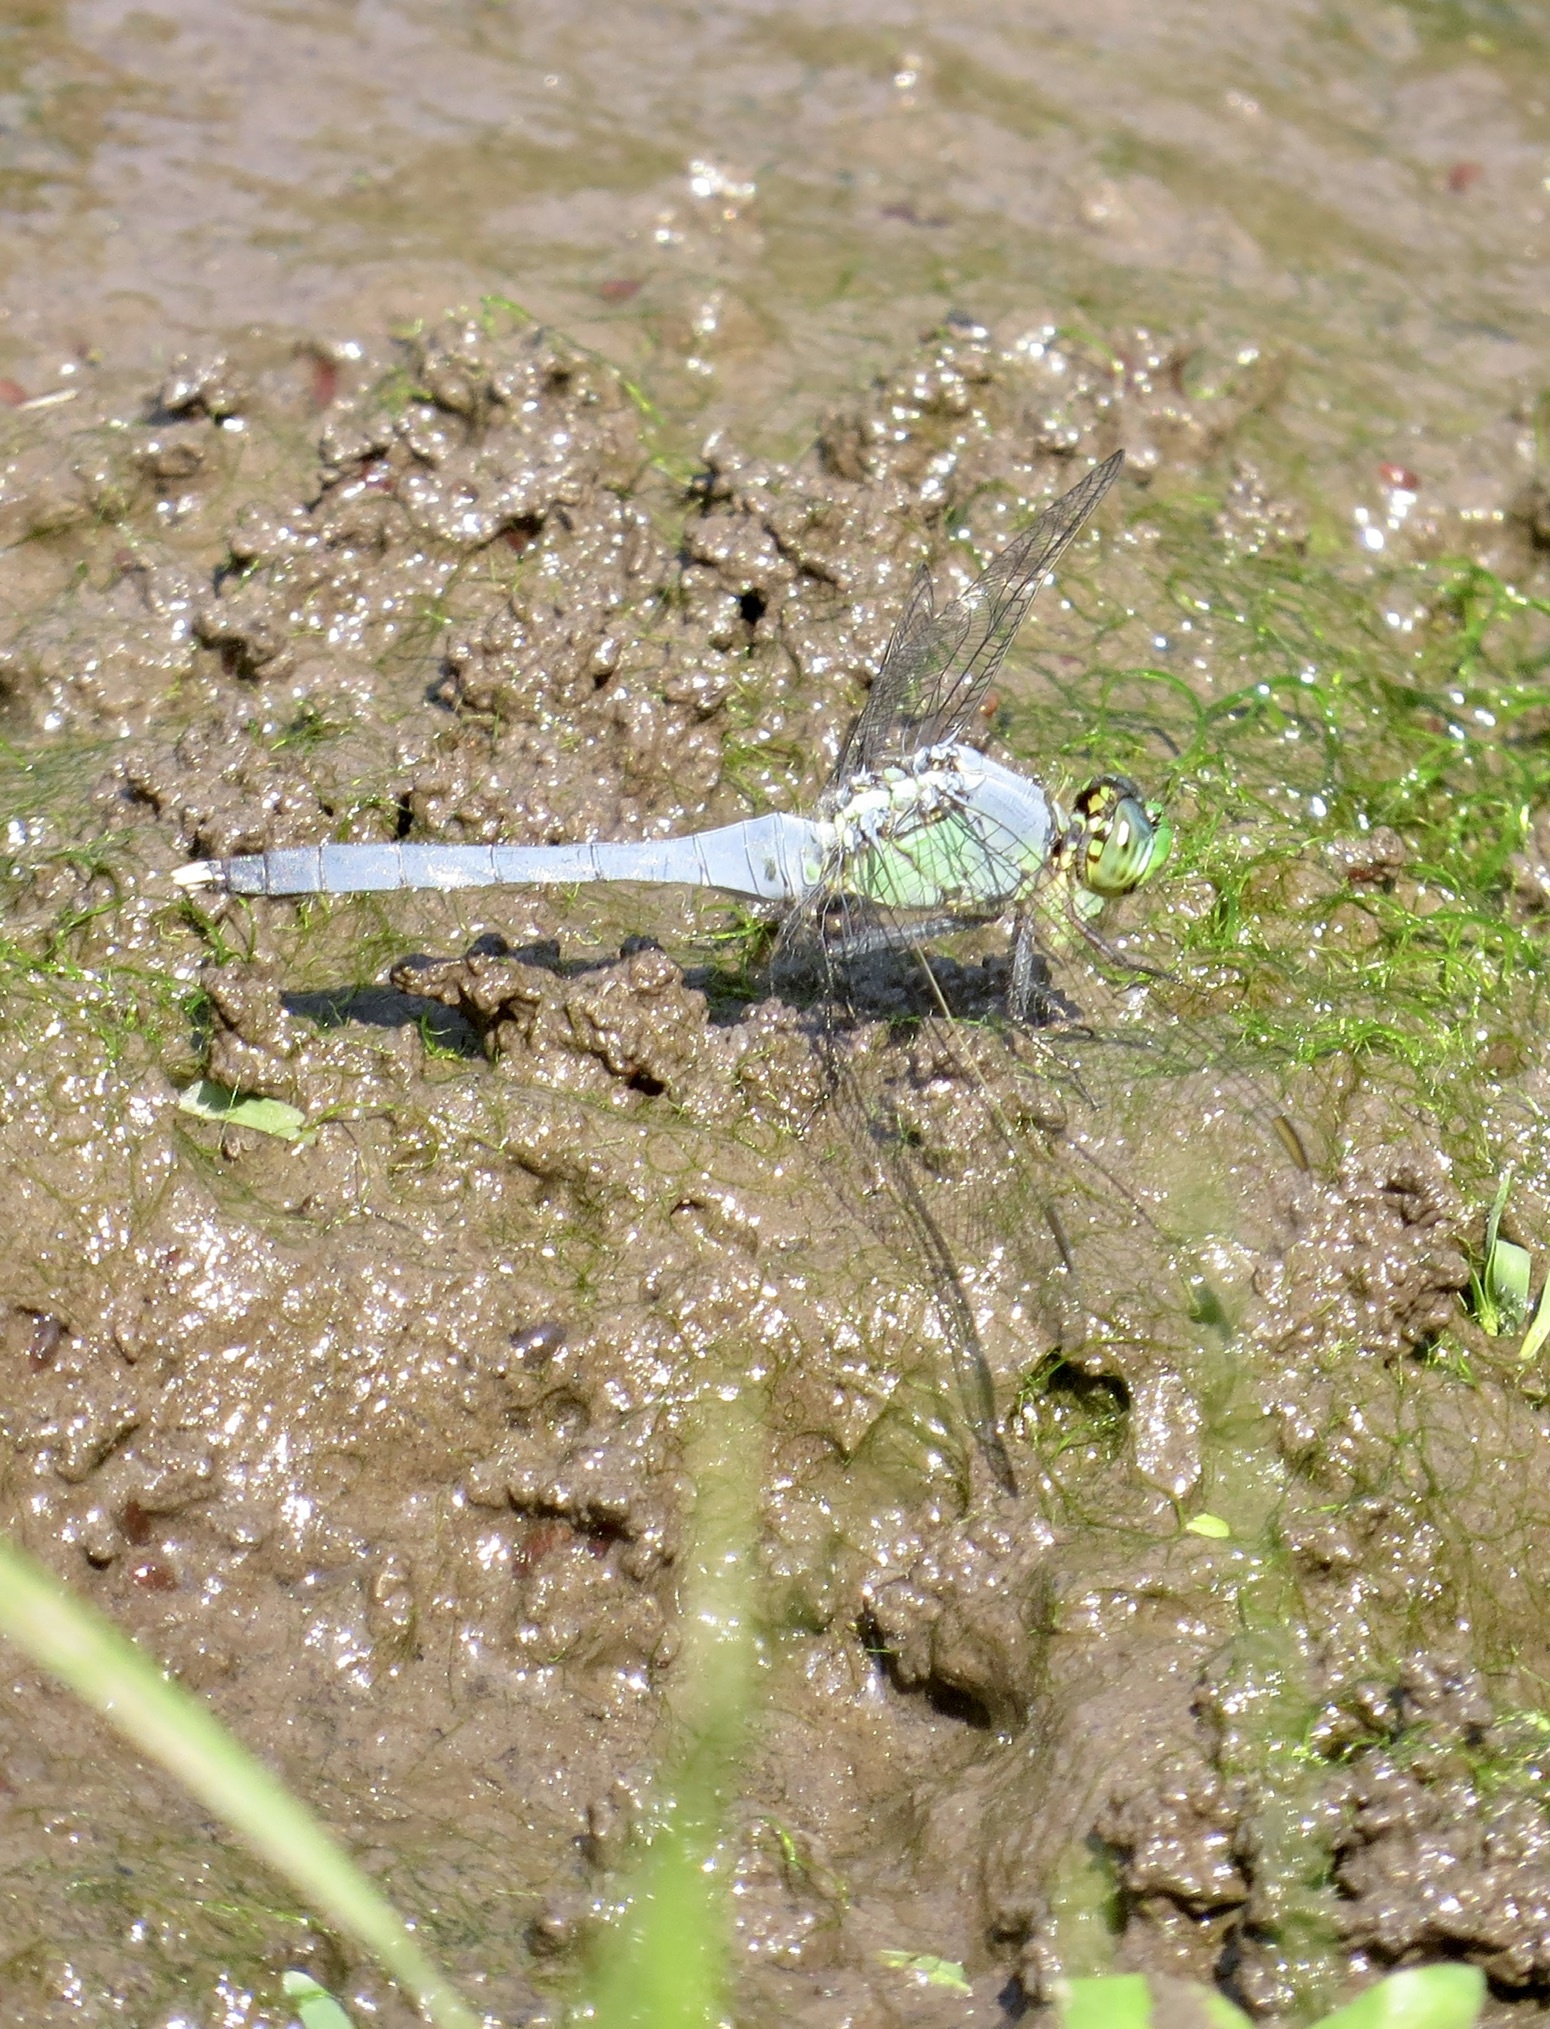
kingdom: Animalia
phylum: Arthropoda
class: Insecta
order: Odonata
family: Libellulidae
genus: Erythemis
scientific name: Erythemis simplicicollis
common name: Eastern pondhawk
